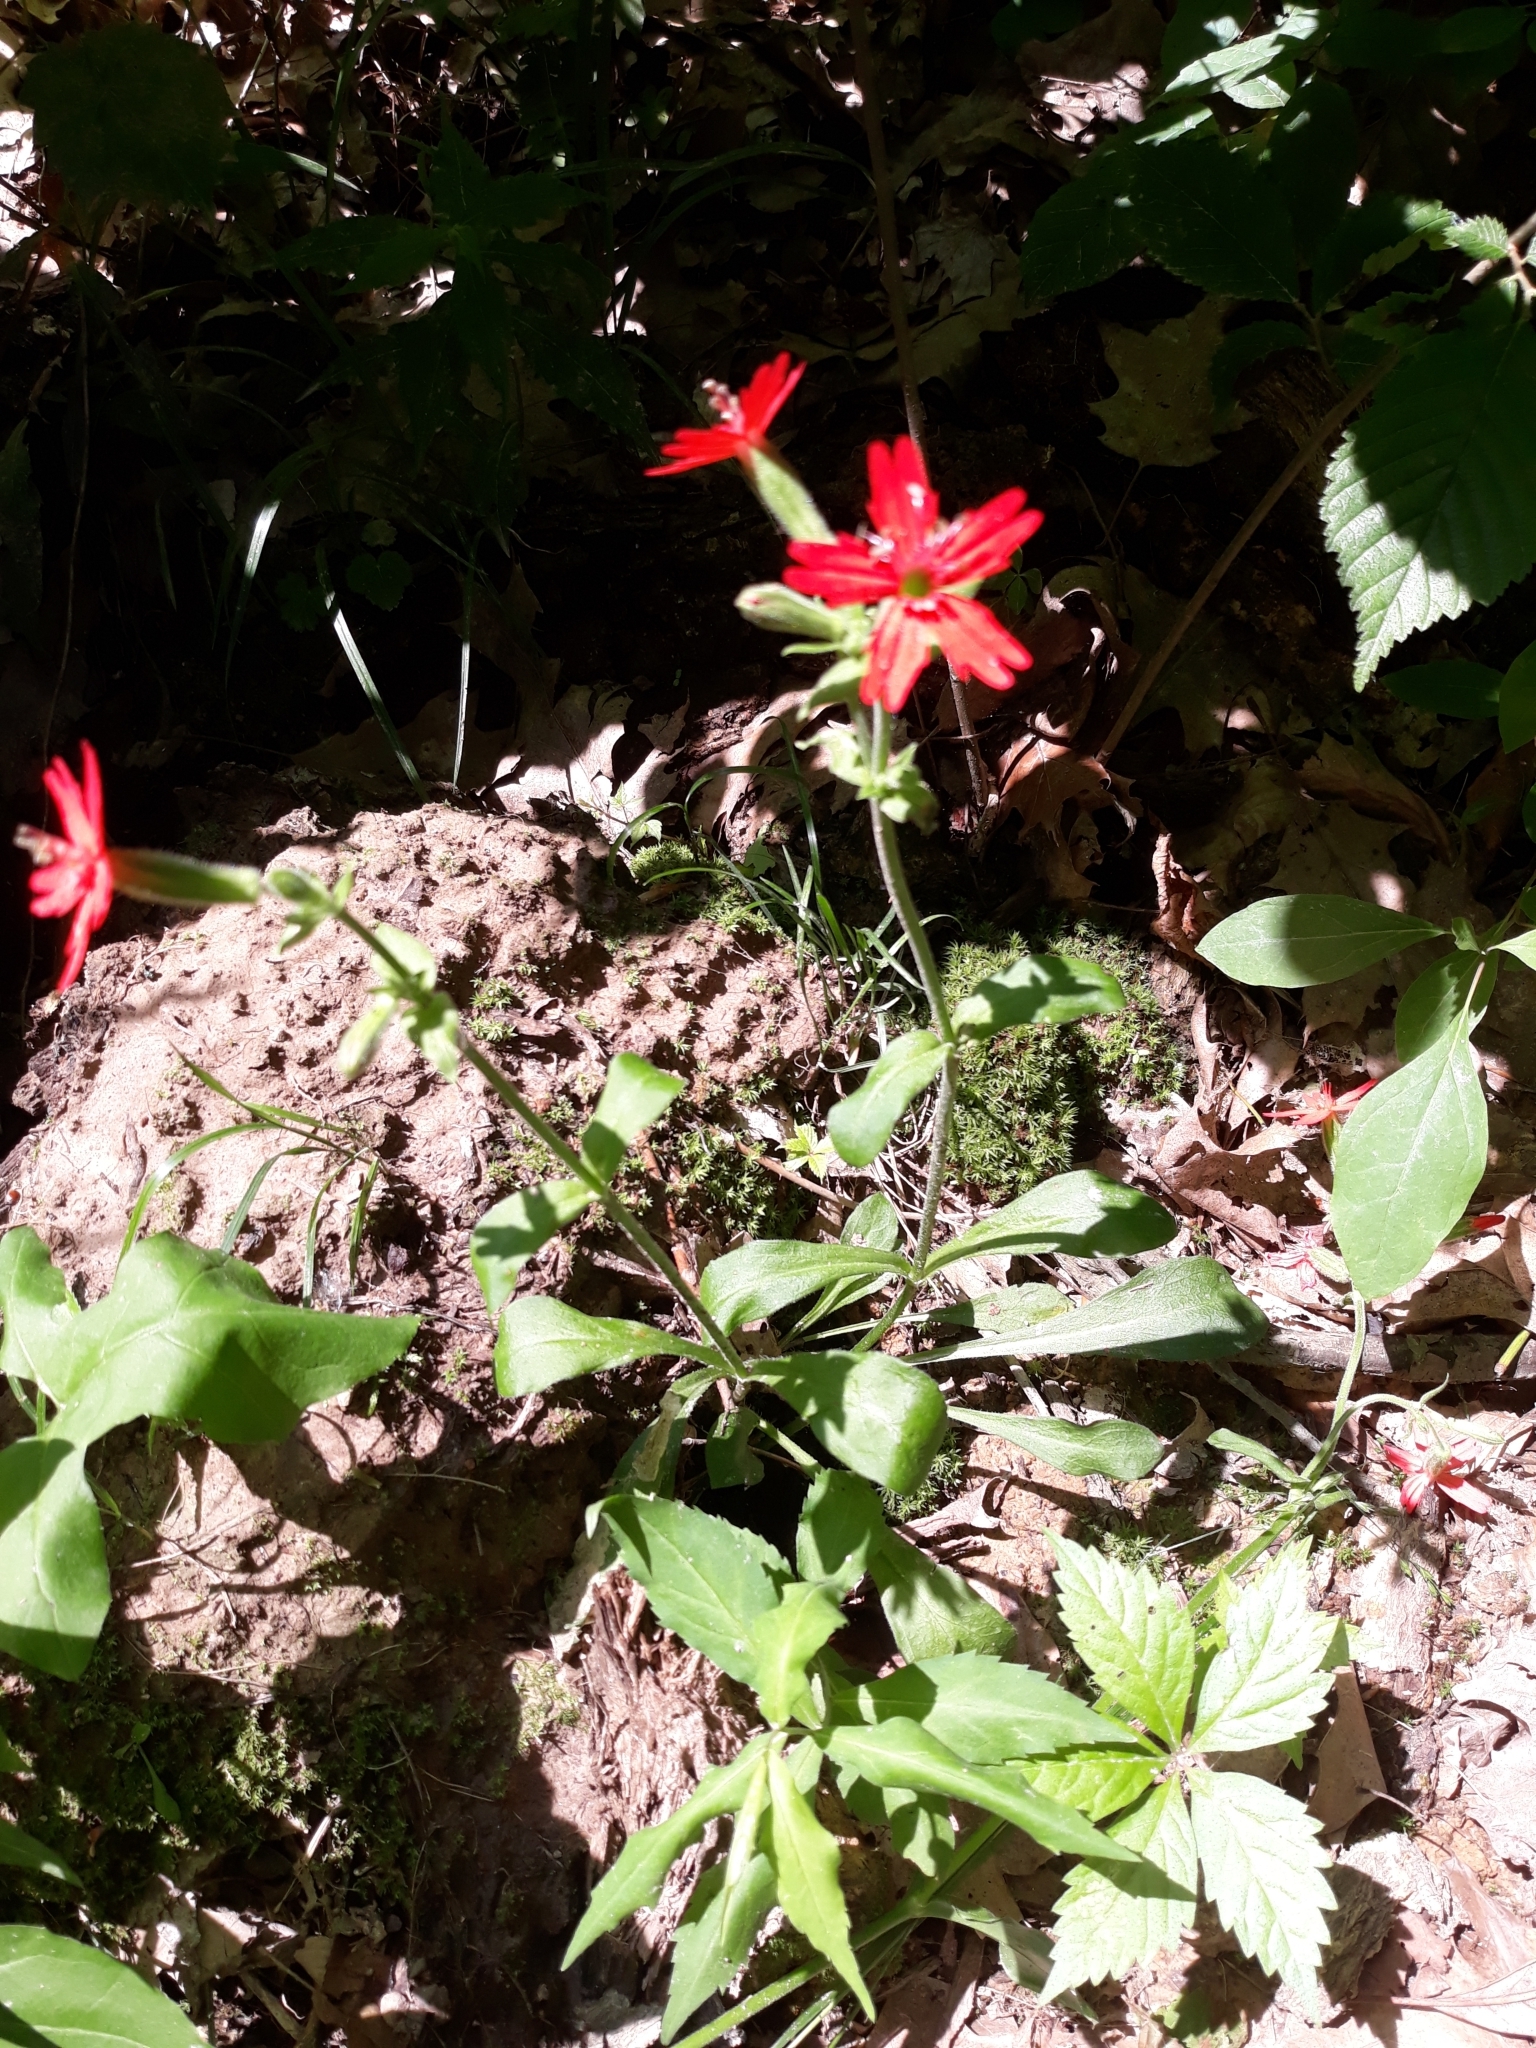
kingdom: Plantae
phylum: Tracheophyta
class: Magnoliopsida
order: Caryophyllales
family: Caryophyllaceae
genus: Silene
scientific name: Silene virginica
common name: Fire-pink
